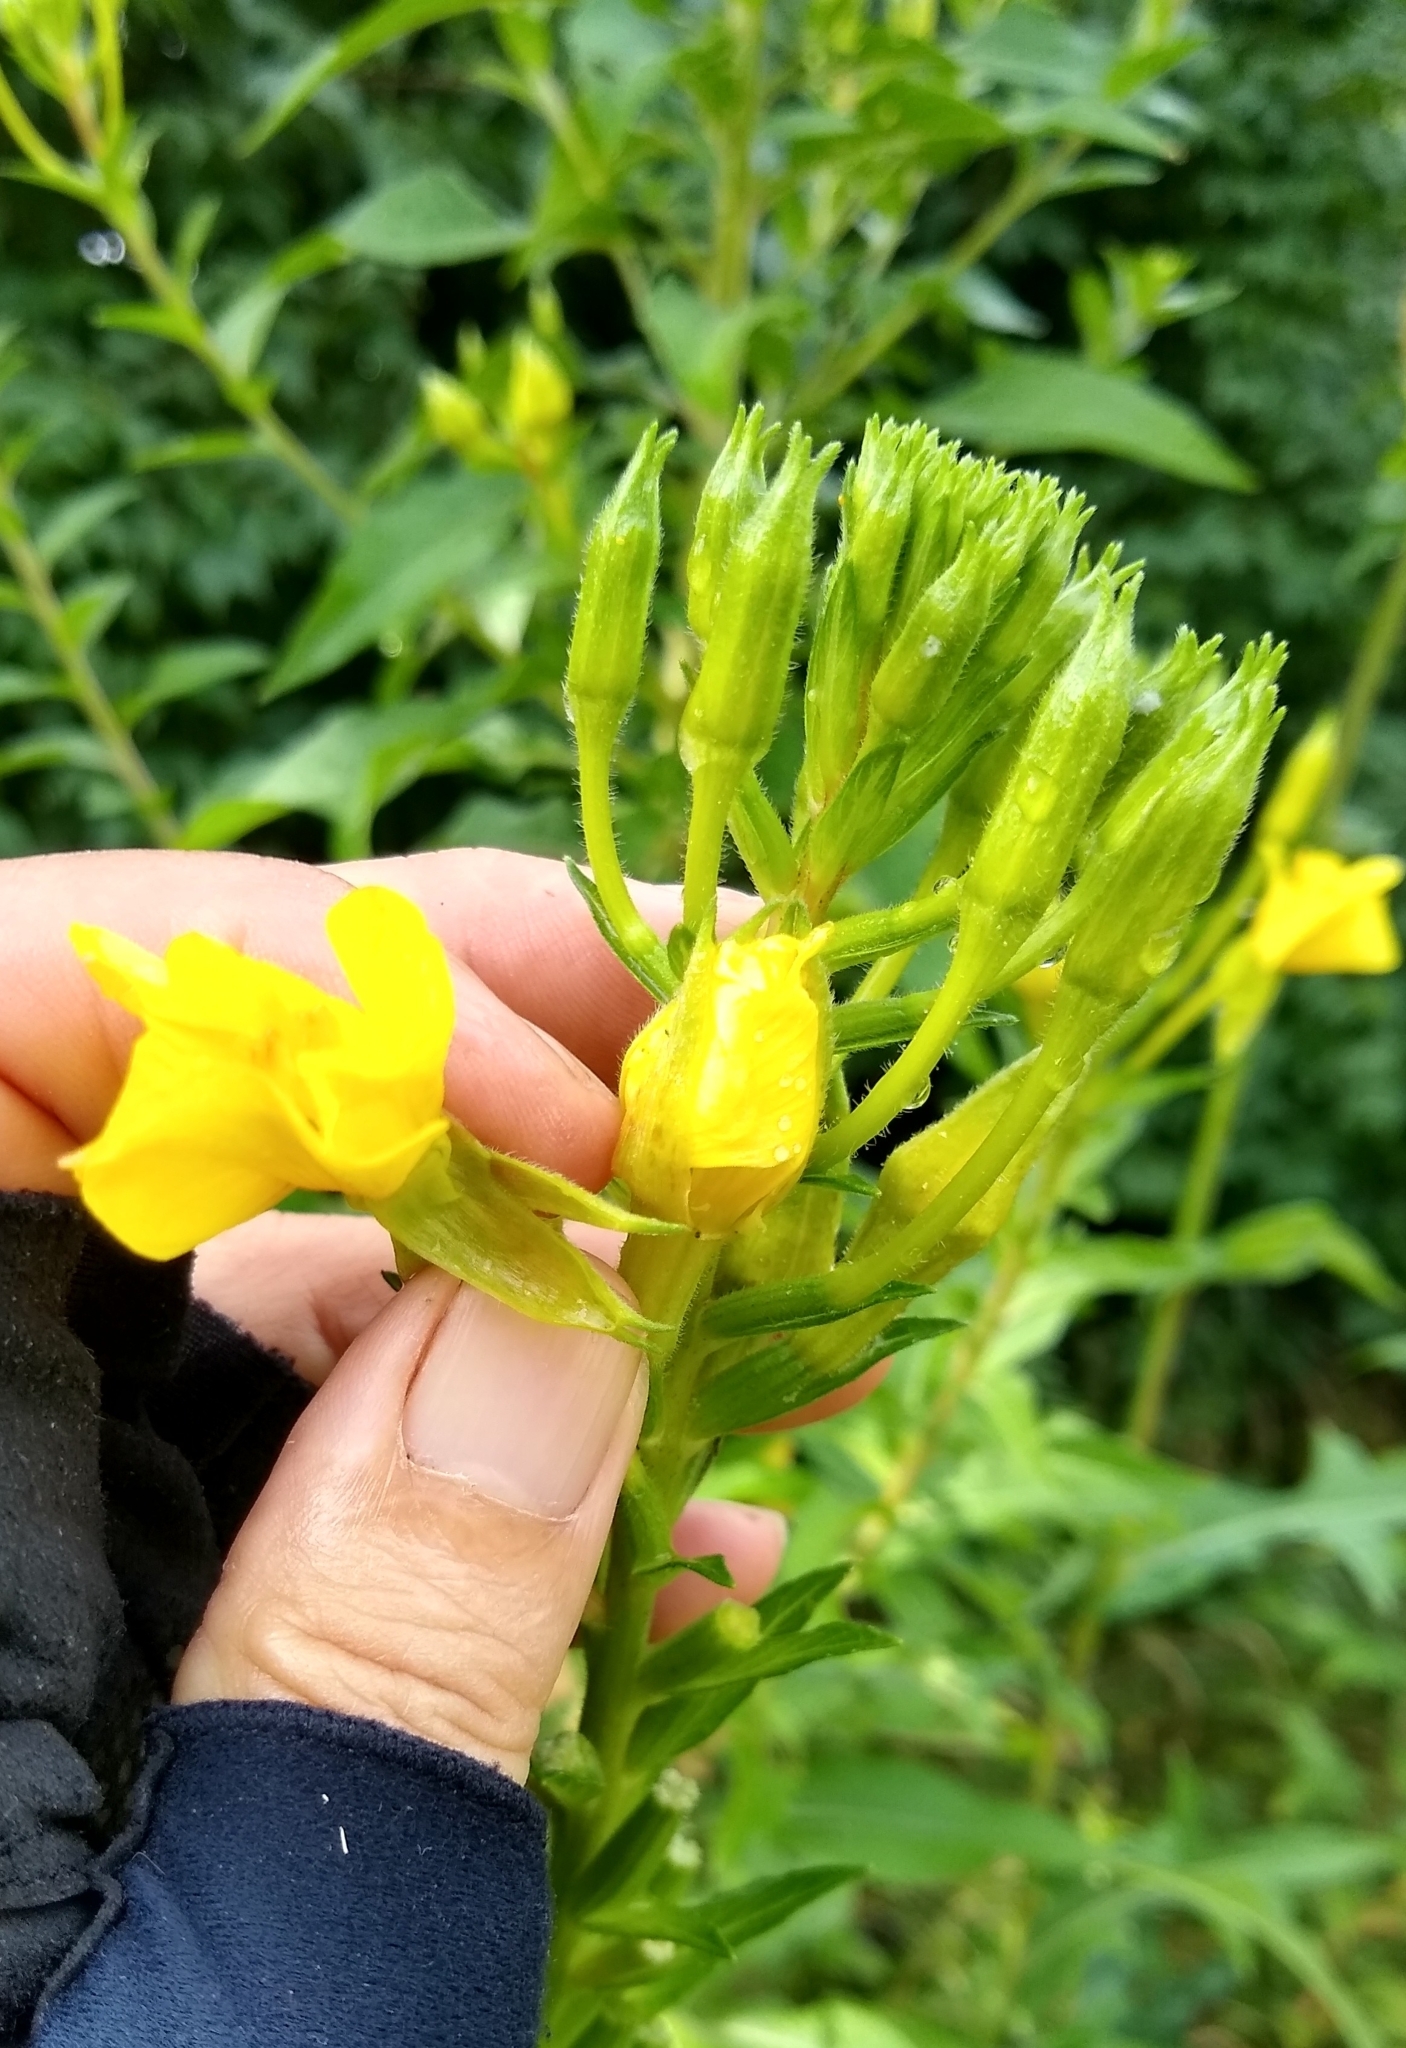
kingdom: Plantae
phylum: Tracheophyta
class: Magnoliopsida
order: Myrtales
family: Onagraceae
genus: Oenothera
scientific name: Oenothera biennis
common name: Common evening-primrose
